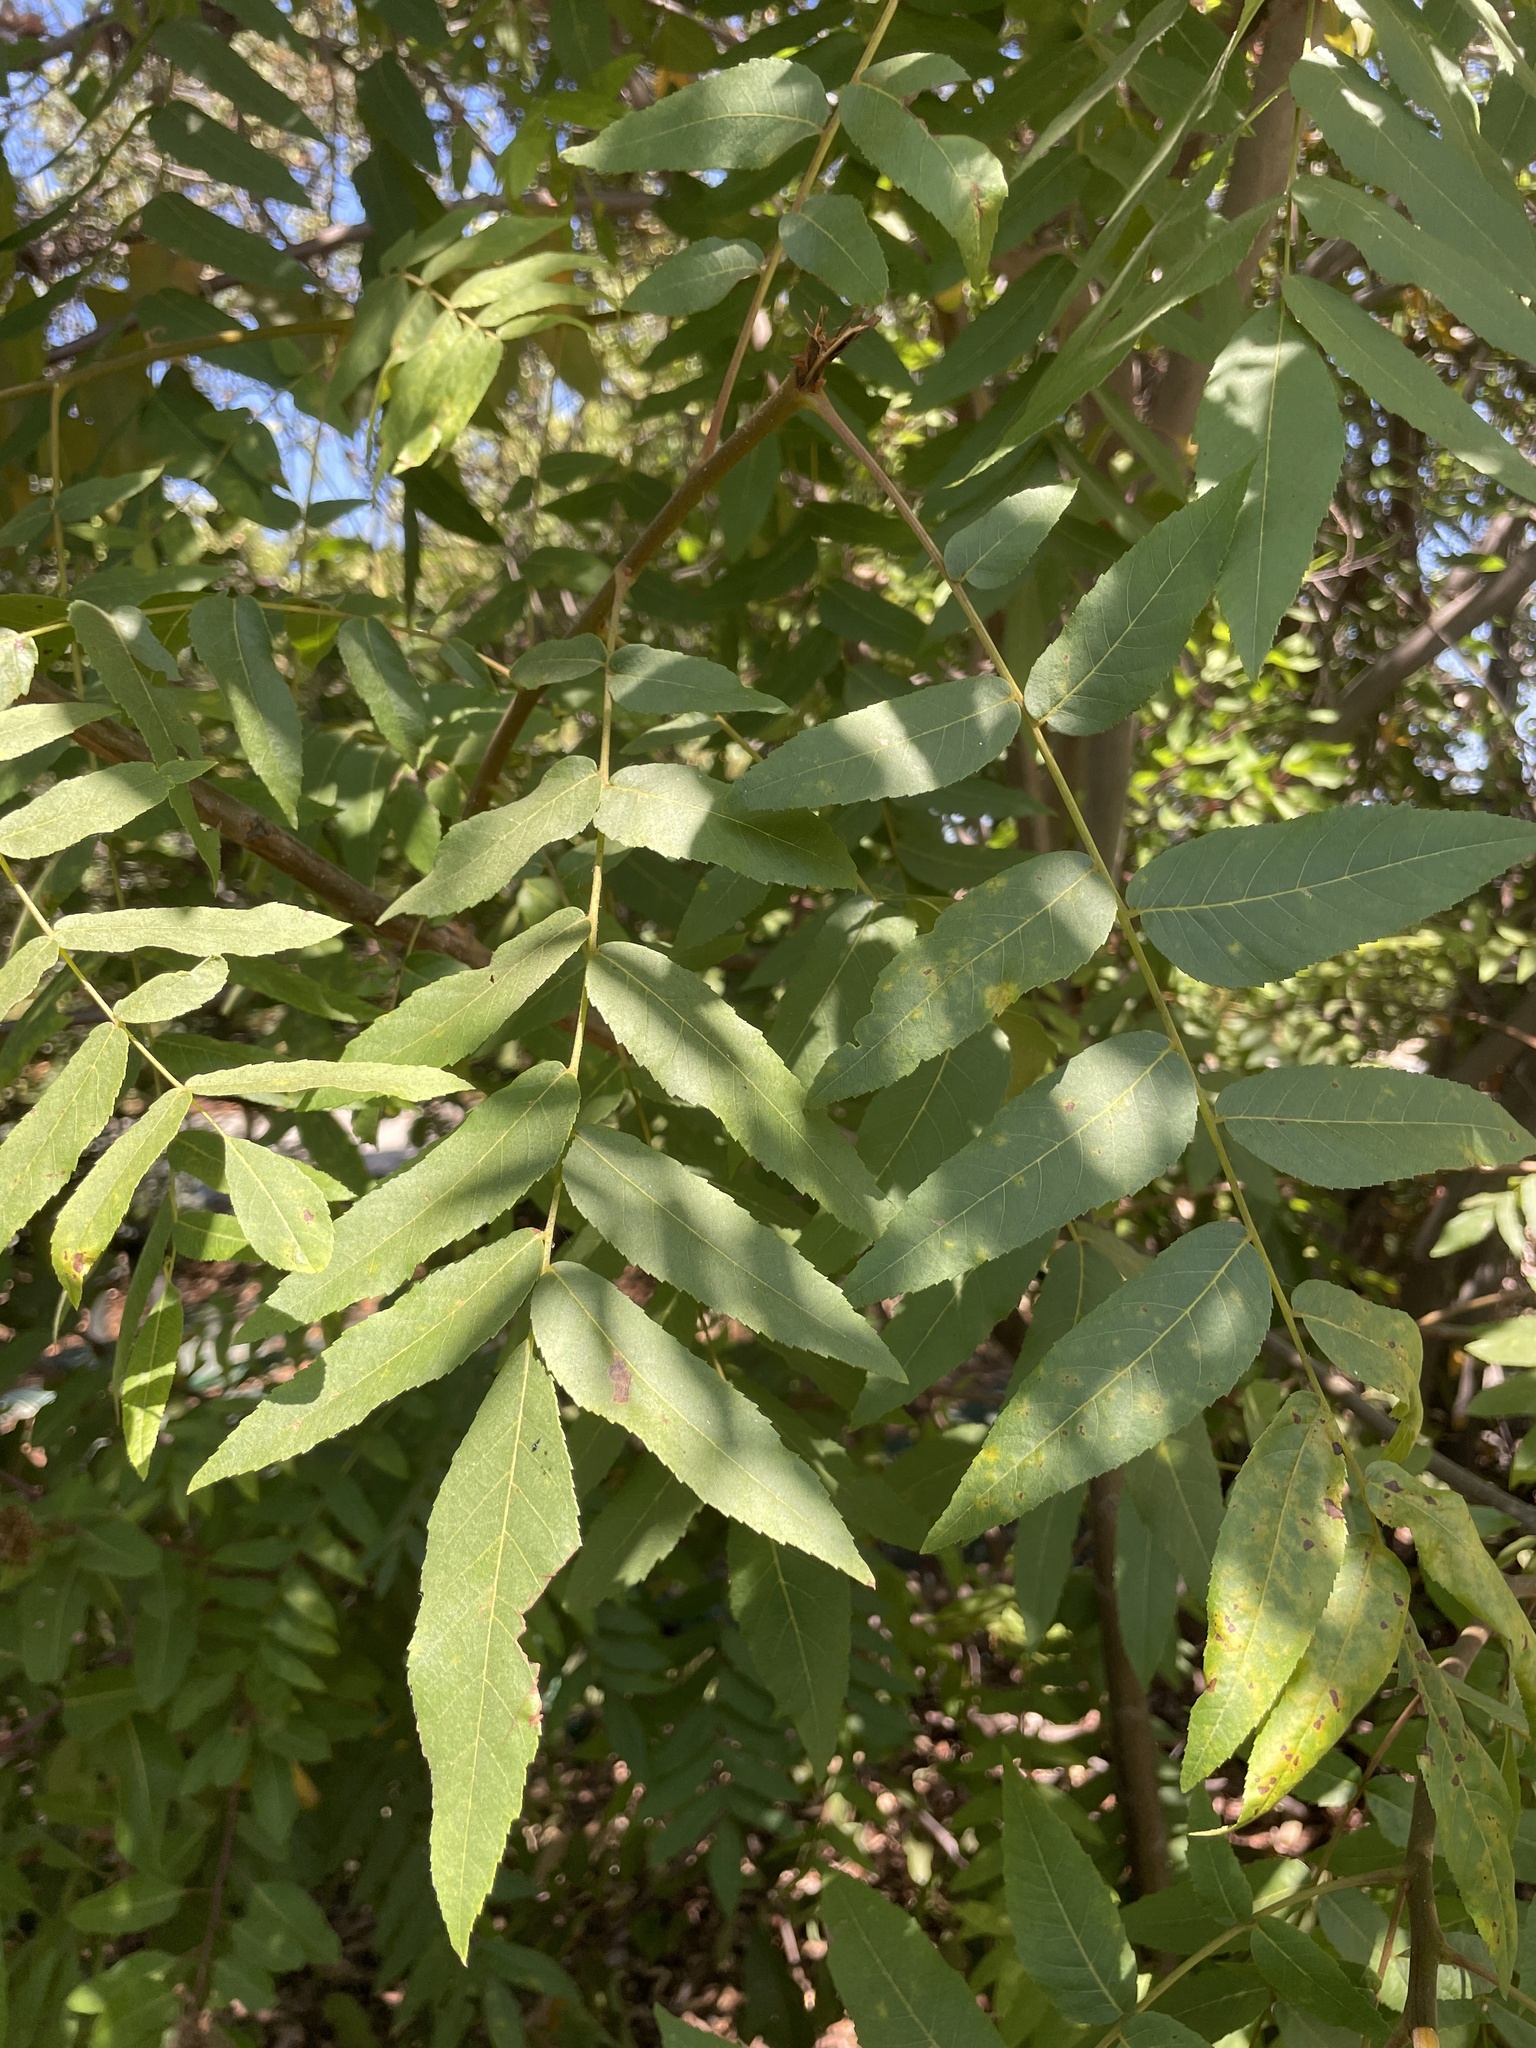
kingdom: Plantae
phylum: Tracheophyta
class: Magnoliopsida
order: Fagales
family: Juglandaceae
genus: Juglans
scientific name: Juglans californica
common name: Southern california black walnut
